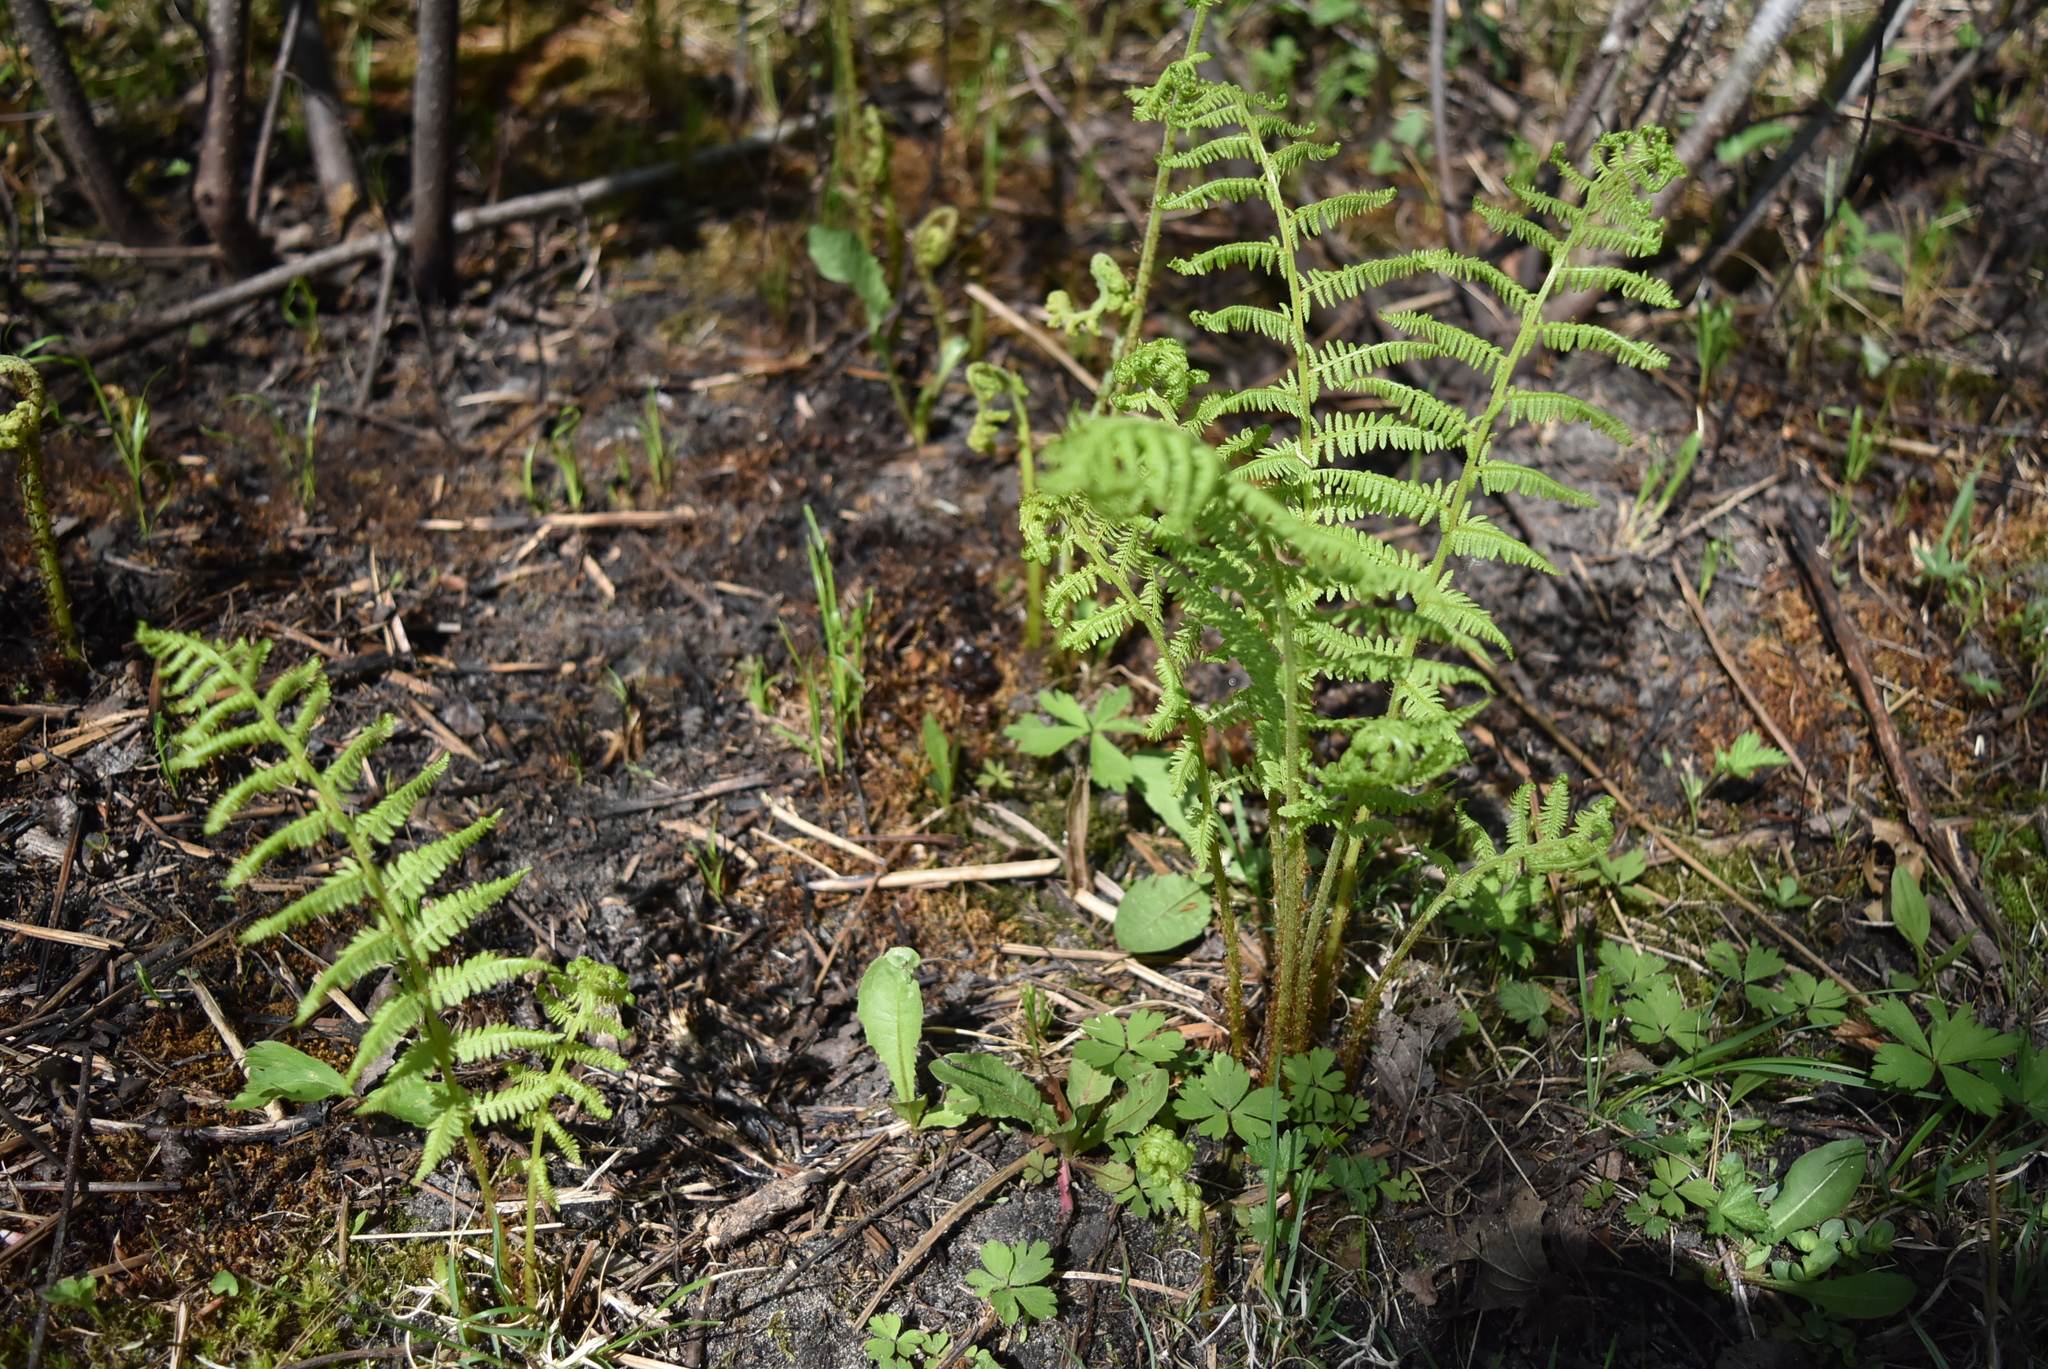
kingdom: Plantae
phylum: Tracheophyta
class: Polypodiopsida
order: Polypodiales
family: Athyriaceae
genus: Athyrium
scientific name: Athyrium angustum
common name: Northern lady fern
